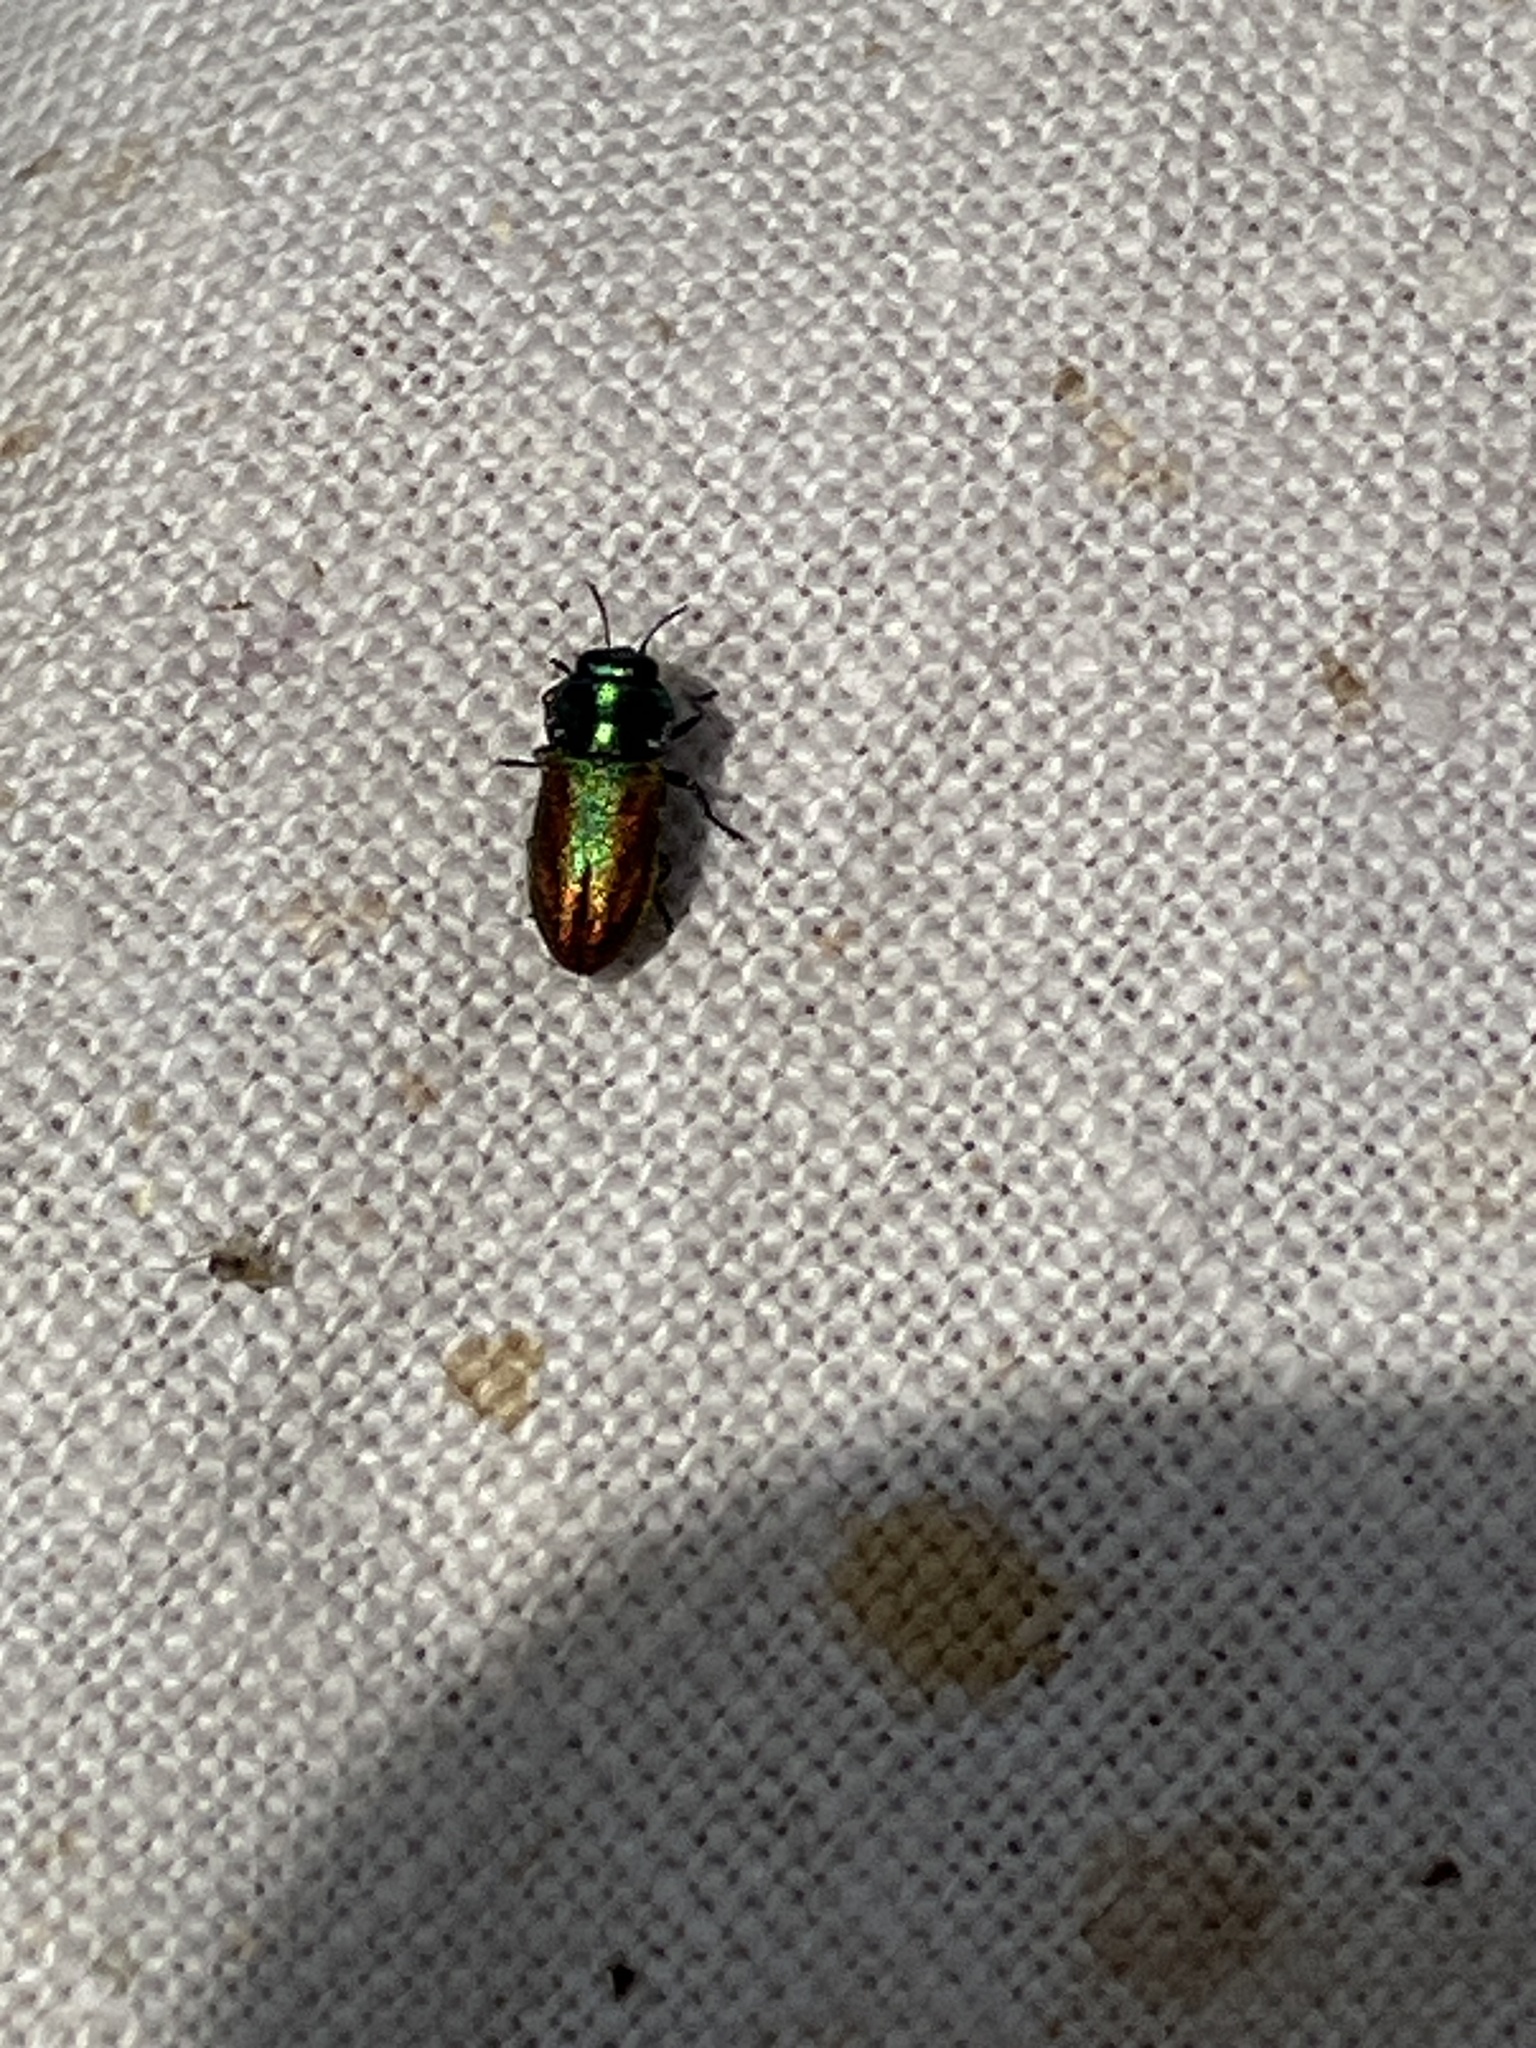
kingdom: Animalia
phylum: Arthropoda
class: Insecta
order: Coleoptera
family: Buprestidae
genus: Anthaxia
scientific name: Anthaxia fulgurans
